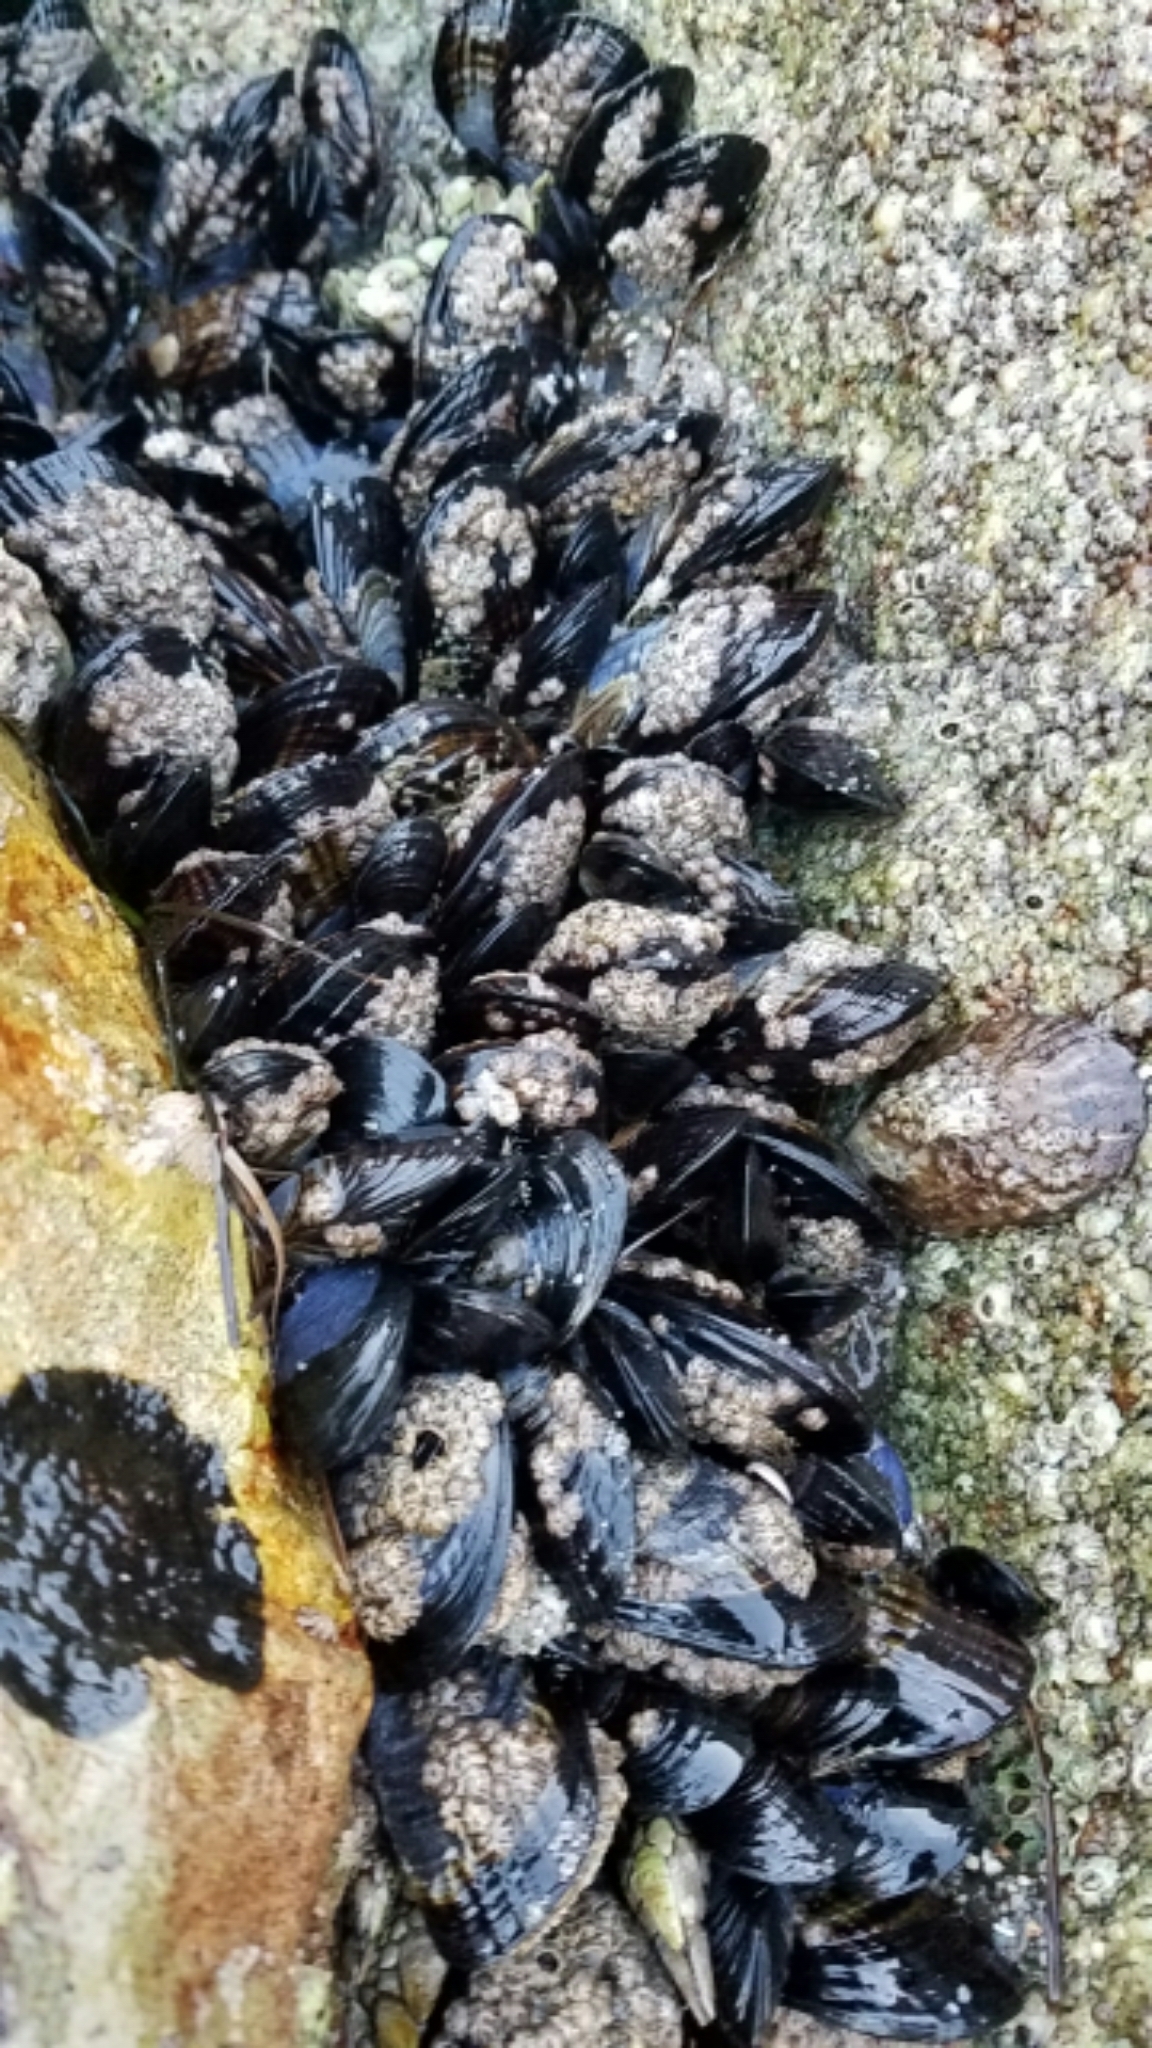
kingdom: Animalia
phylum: Mollusca
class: Bivalvia
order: Mytilida
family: Mytilidae
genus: Mytilus
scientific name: Mytilus californianus
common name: California mussel
